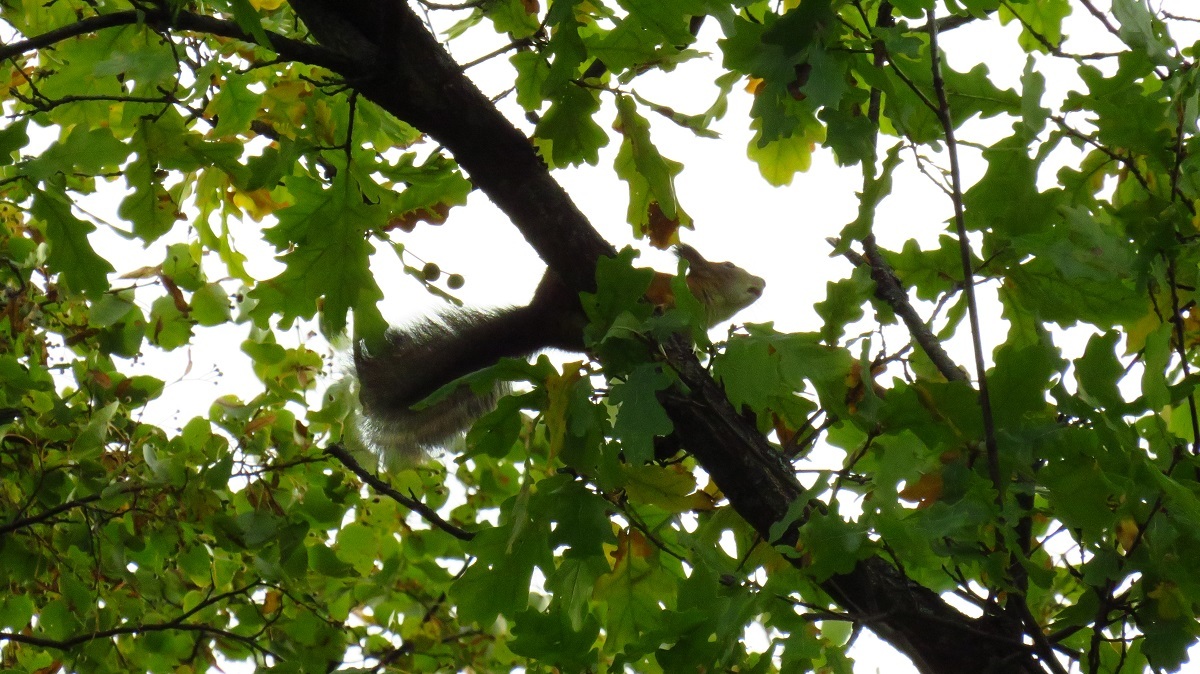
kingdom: Animalia
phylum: Chordata
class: Mammalia
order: Rodentia
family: Sciuridae
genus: Sciurus
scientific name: Sciurus vulgaris
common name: Eurasian red squirrel
